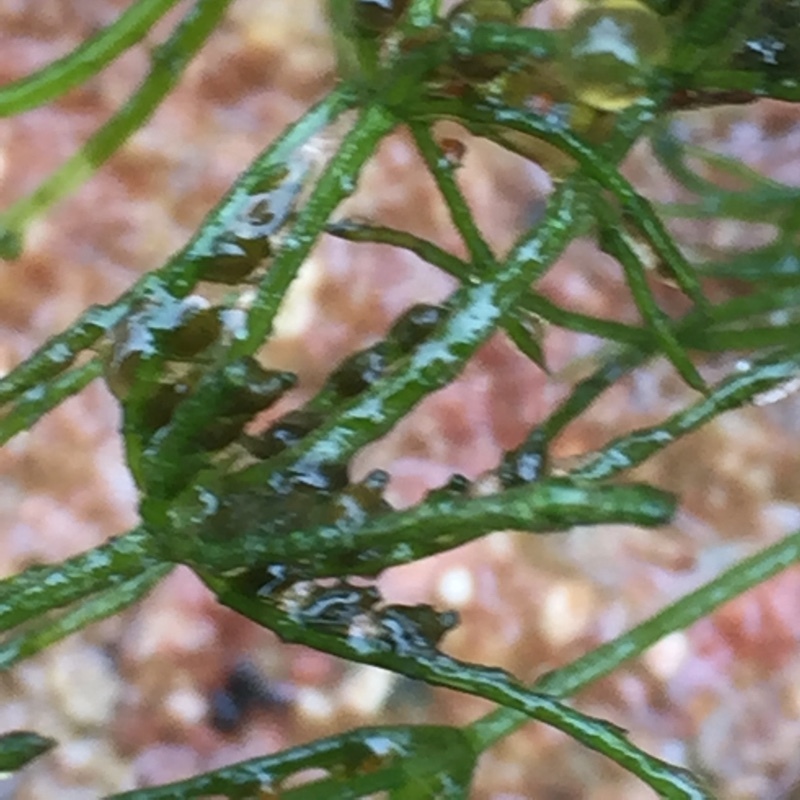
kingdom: Plantae
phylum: Charophyta
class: Charophyceae
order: Charales
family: Characeae
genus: Chara
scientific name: Chara globularis
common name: Fragile stonewort
